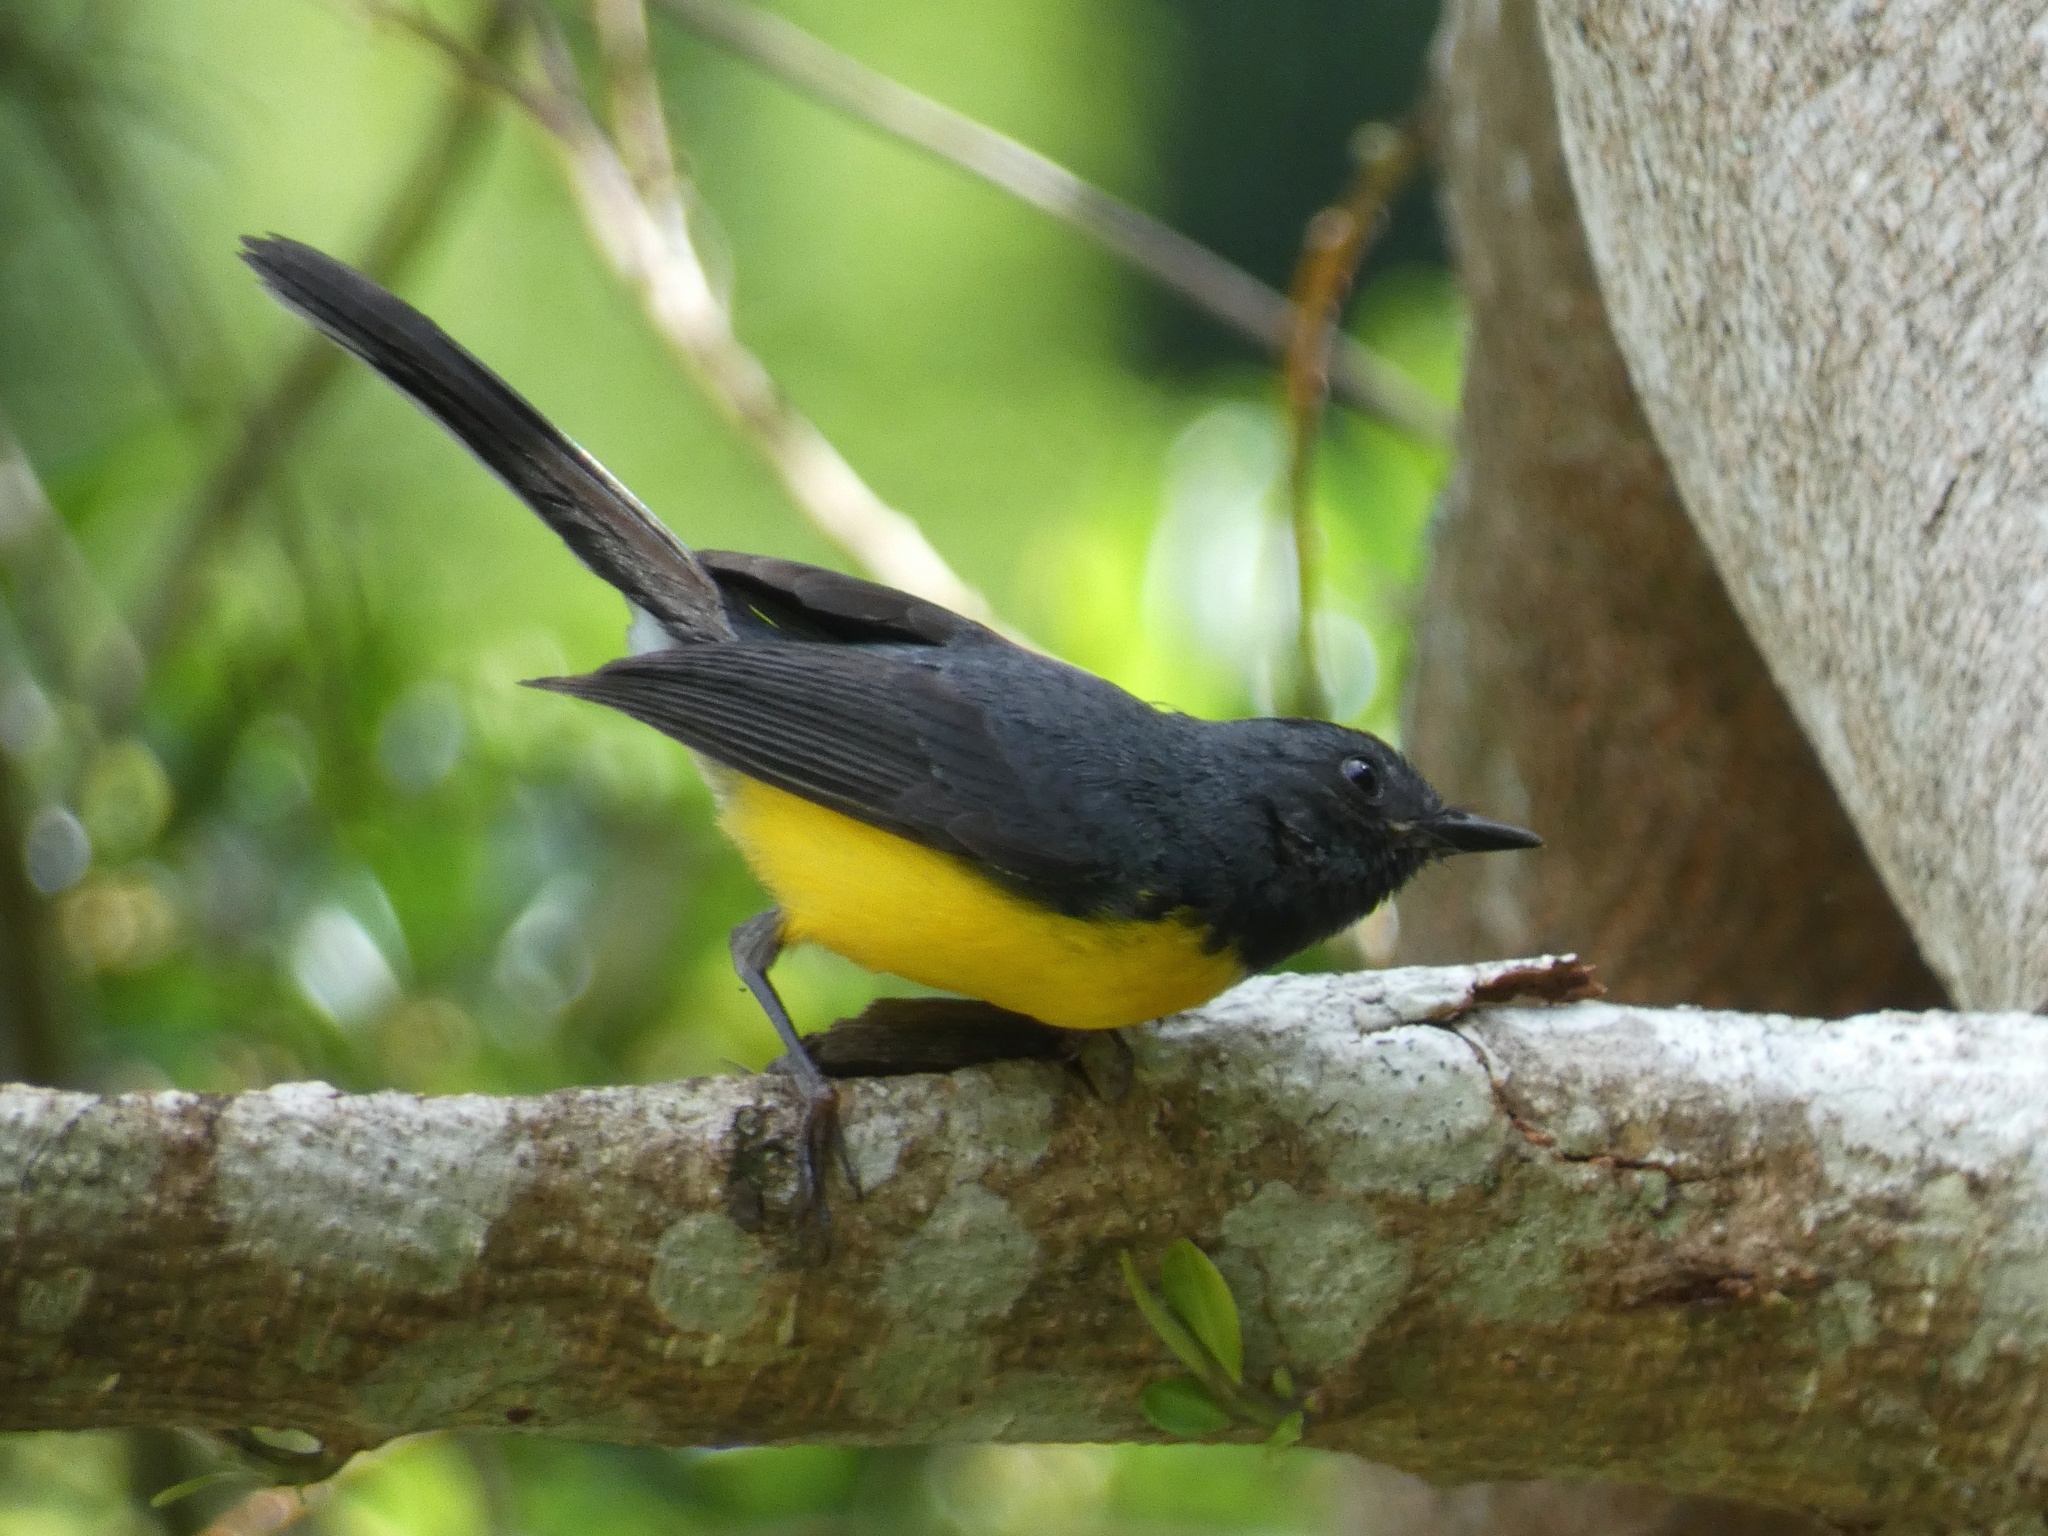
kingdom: Animalia
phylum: Chordata
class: Aves
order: Passeriformes
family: Parulidae
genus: Myioborus
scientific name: Myioborus miniatus
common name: Slate-throated redstart
